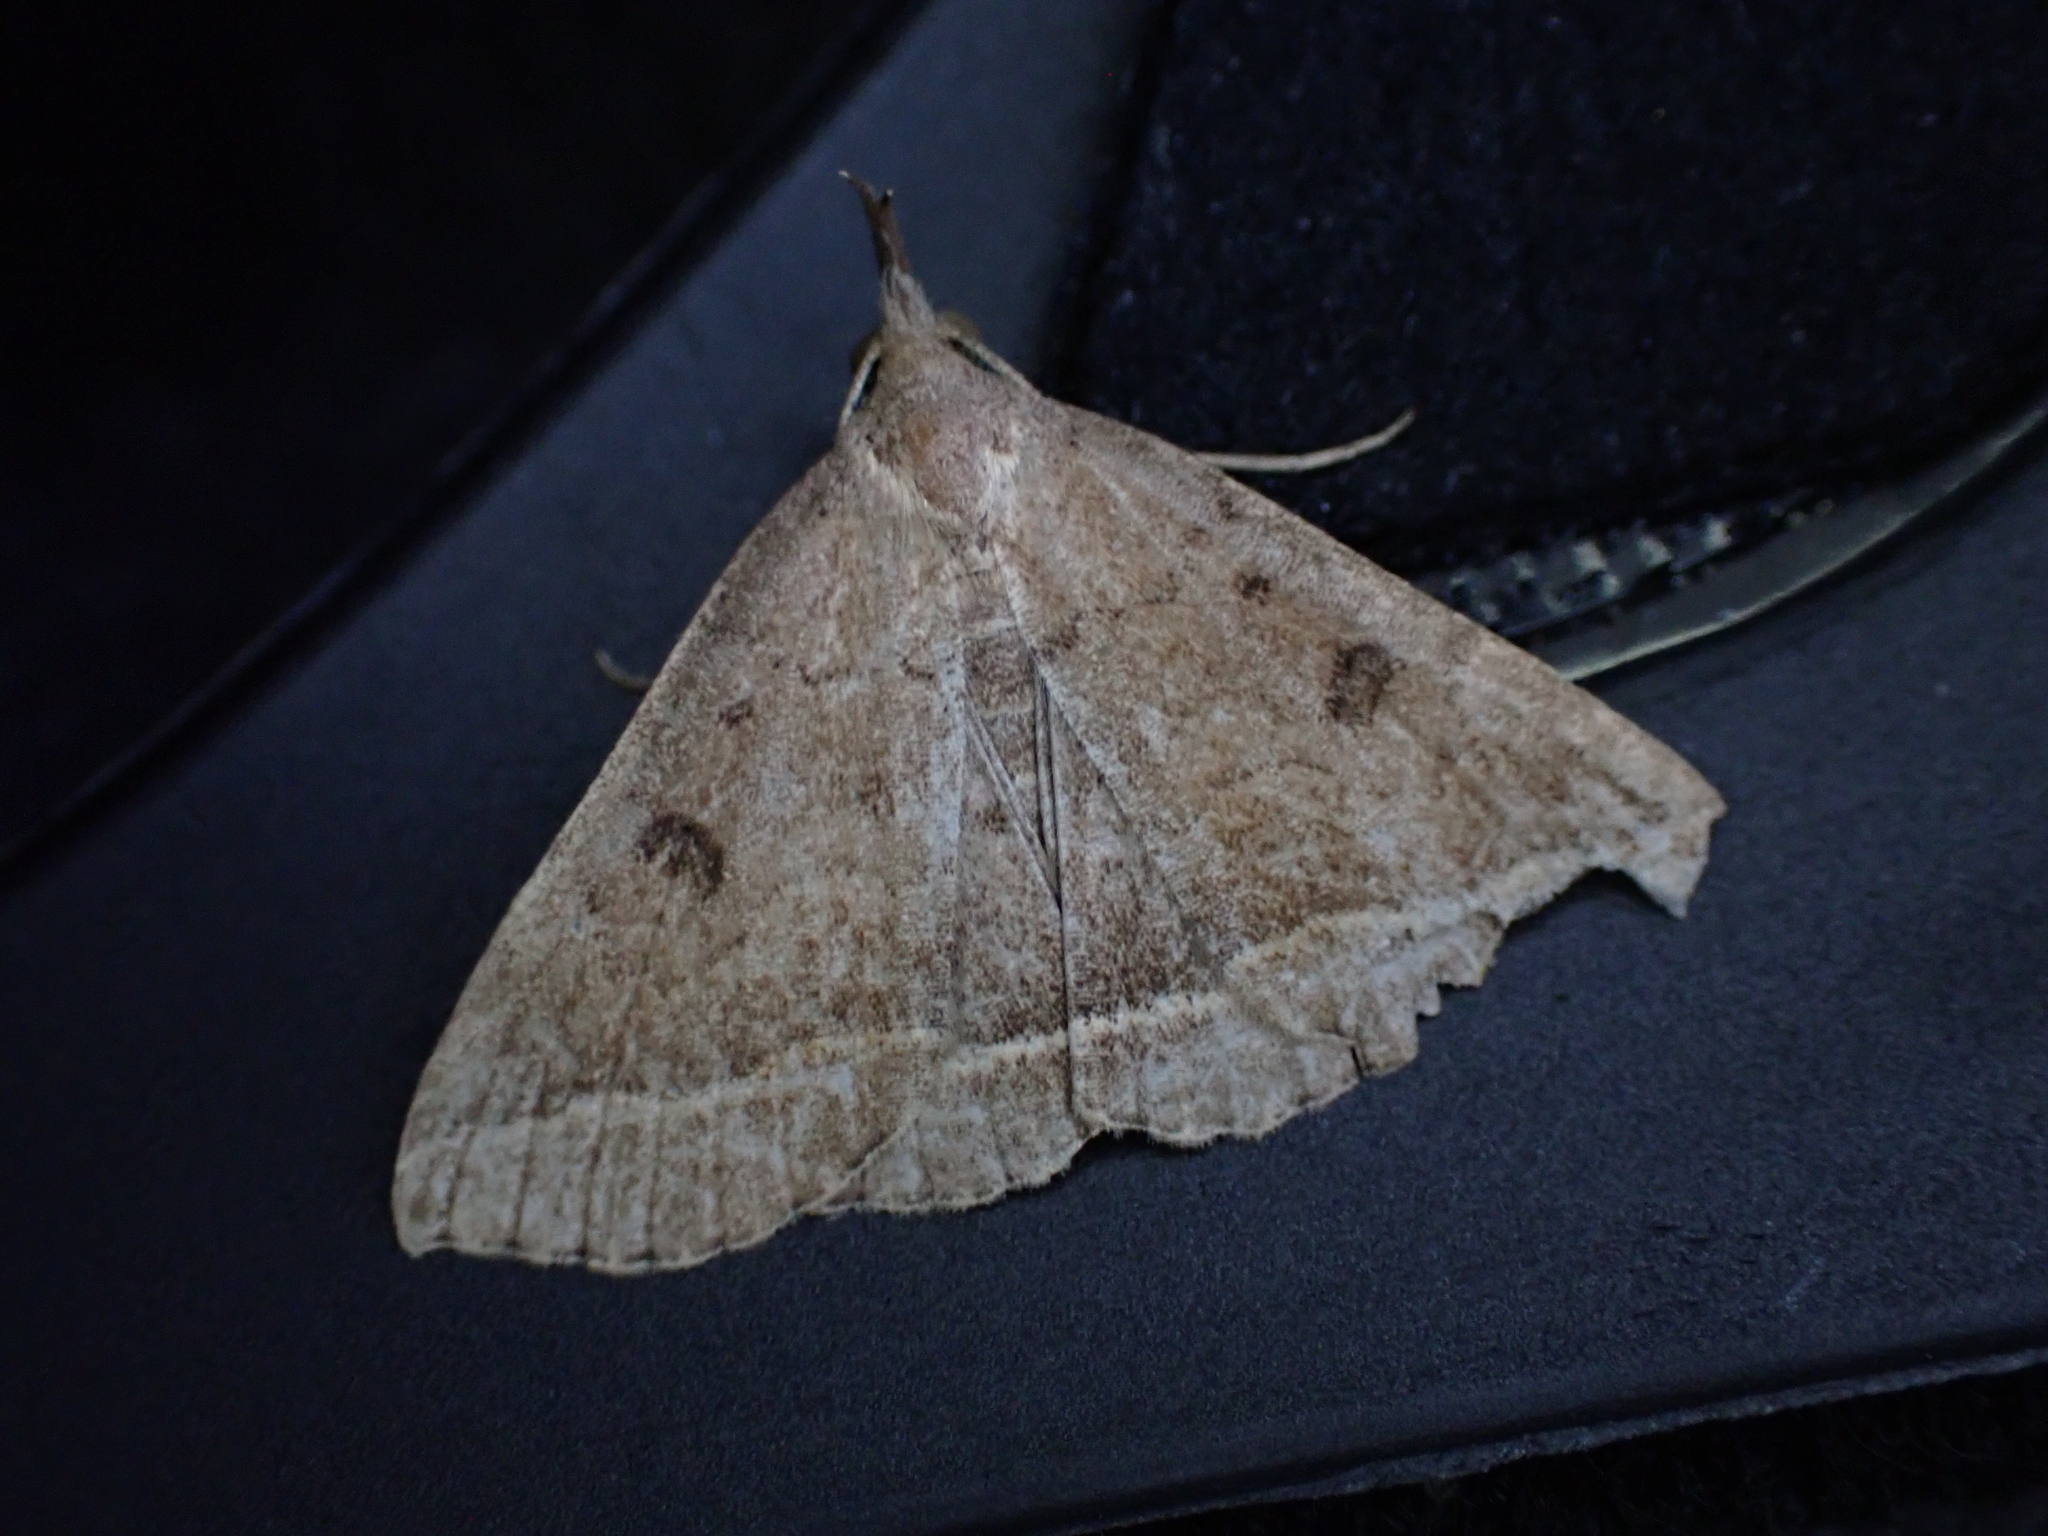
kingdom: Animalia
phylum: Arthropoda
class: Insecta
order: Lepidoptera
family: Erebidae
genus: Pechipogo
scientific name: Pechipogo plumigeralis
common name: Plumed fan-foot
